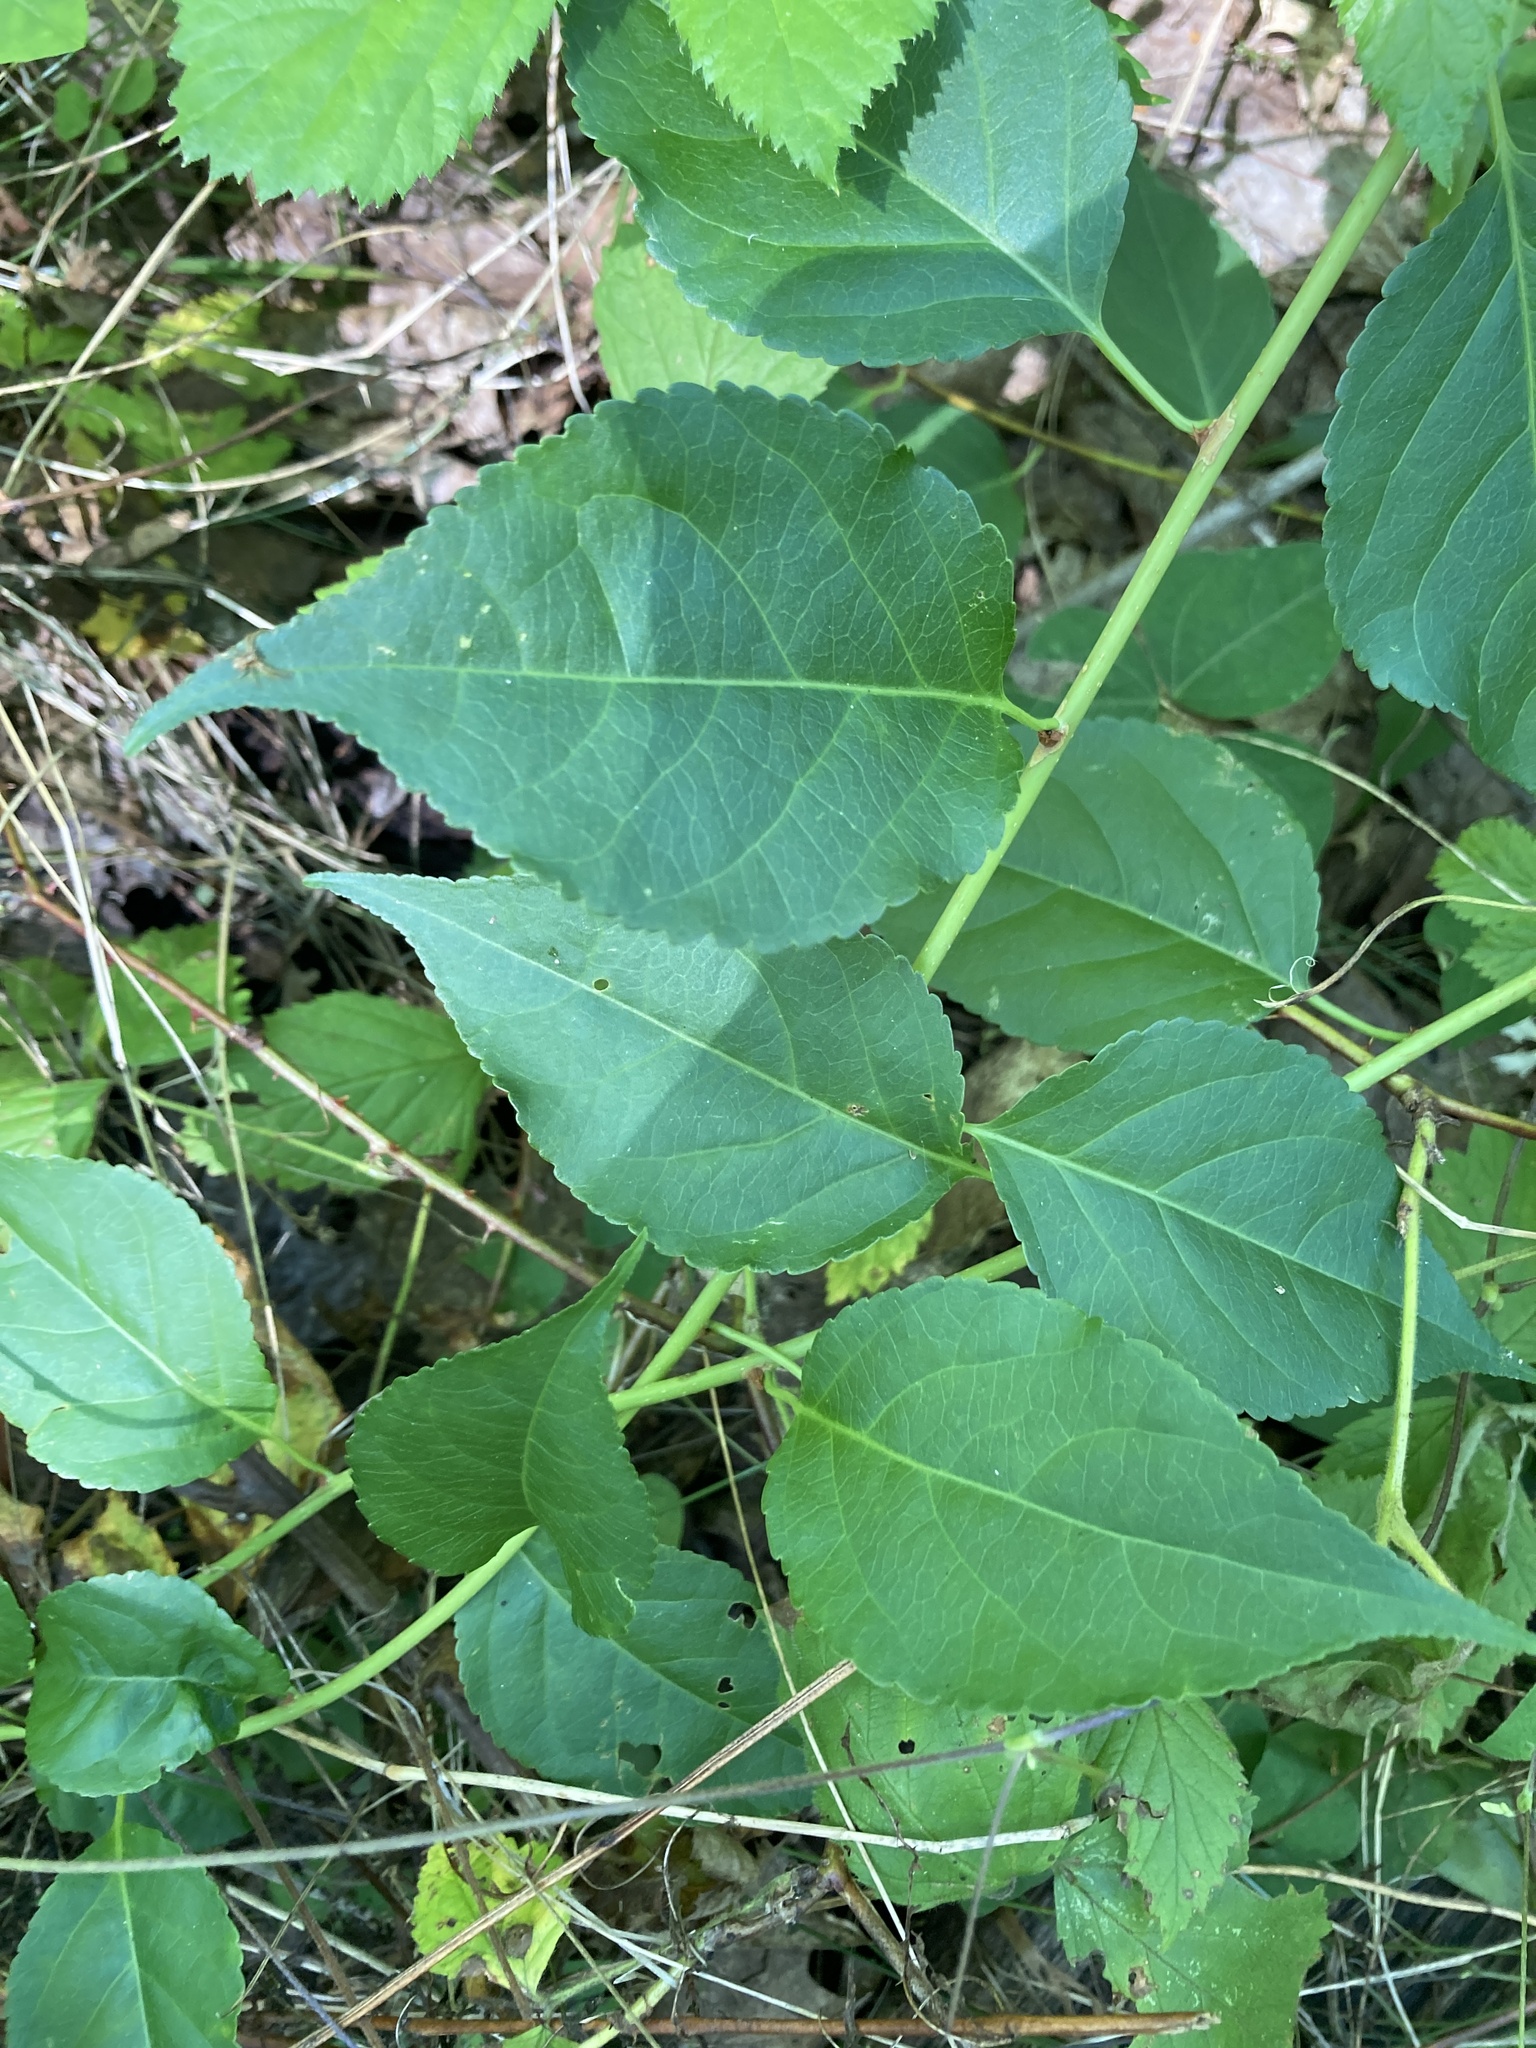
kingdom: Plantae
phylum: Tracheophyta
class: Magnoliopsida
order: Celastrales
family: Celastraceae
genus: Celastrus
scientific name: Celastrus orbiculatus
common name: Oriental bittersweet
